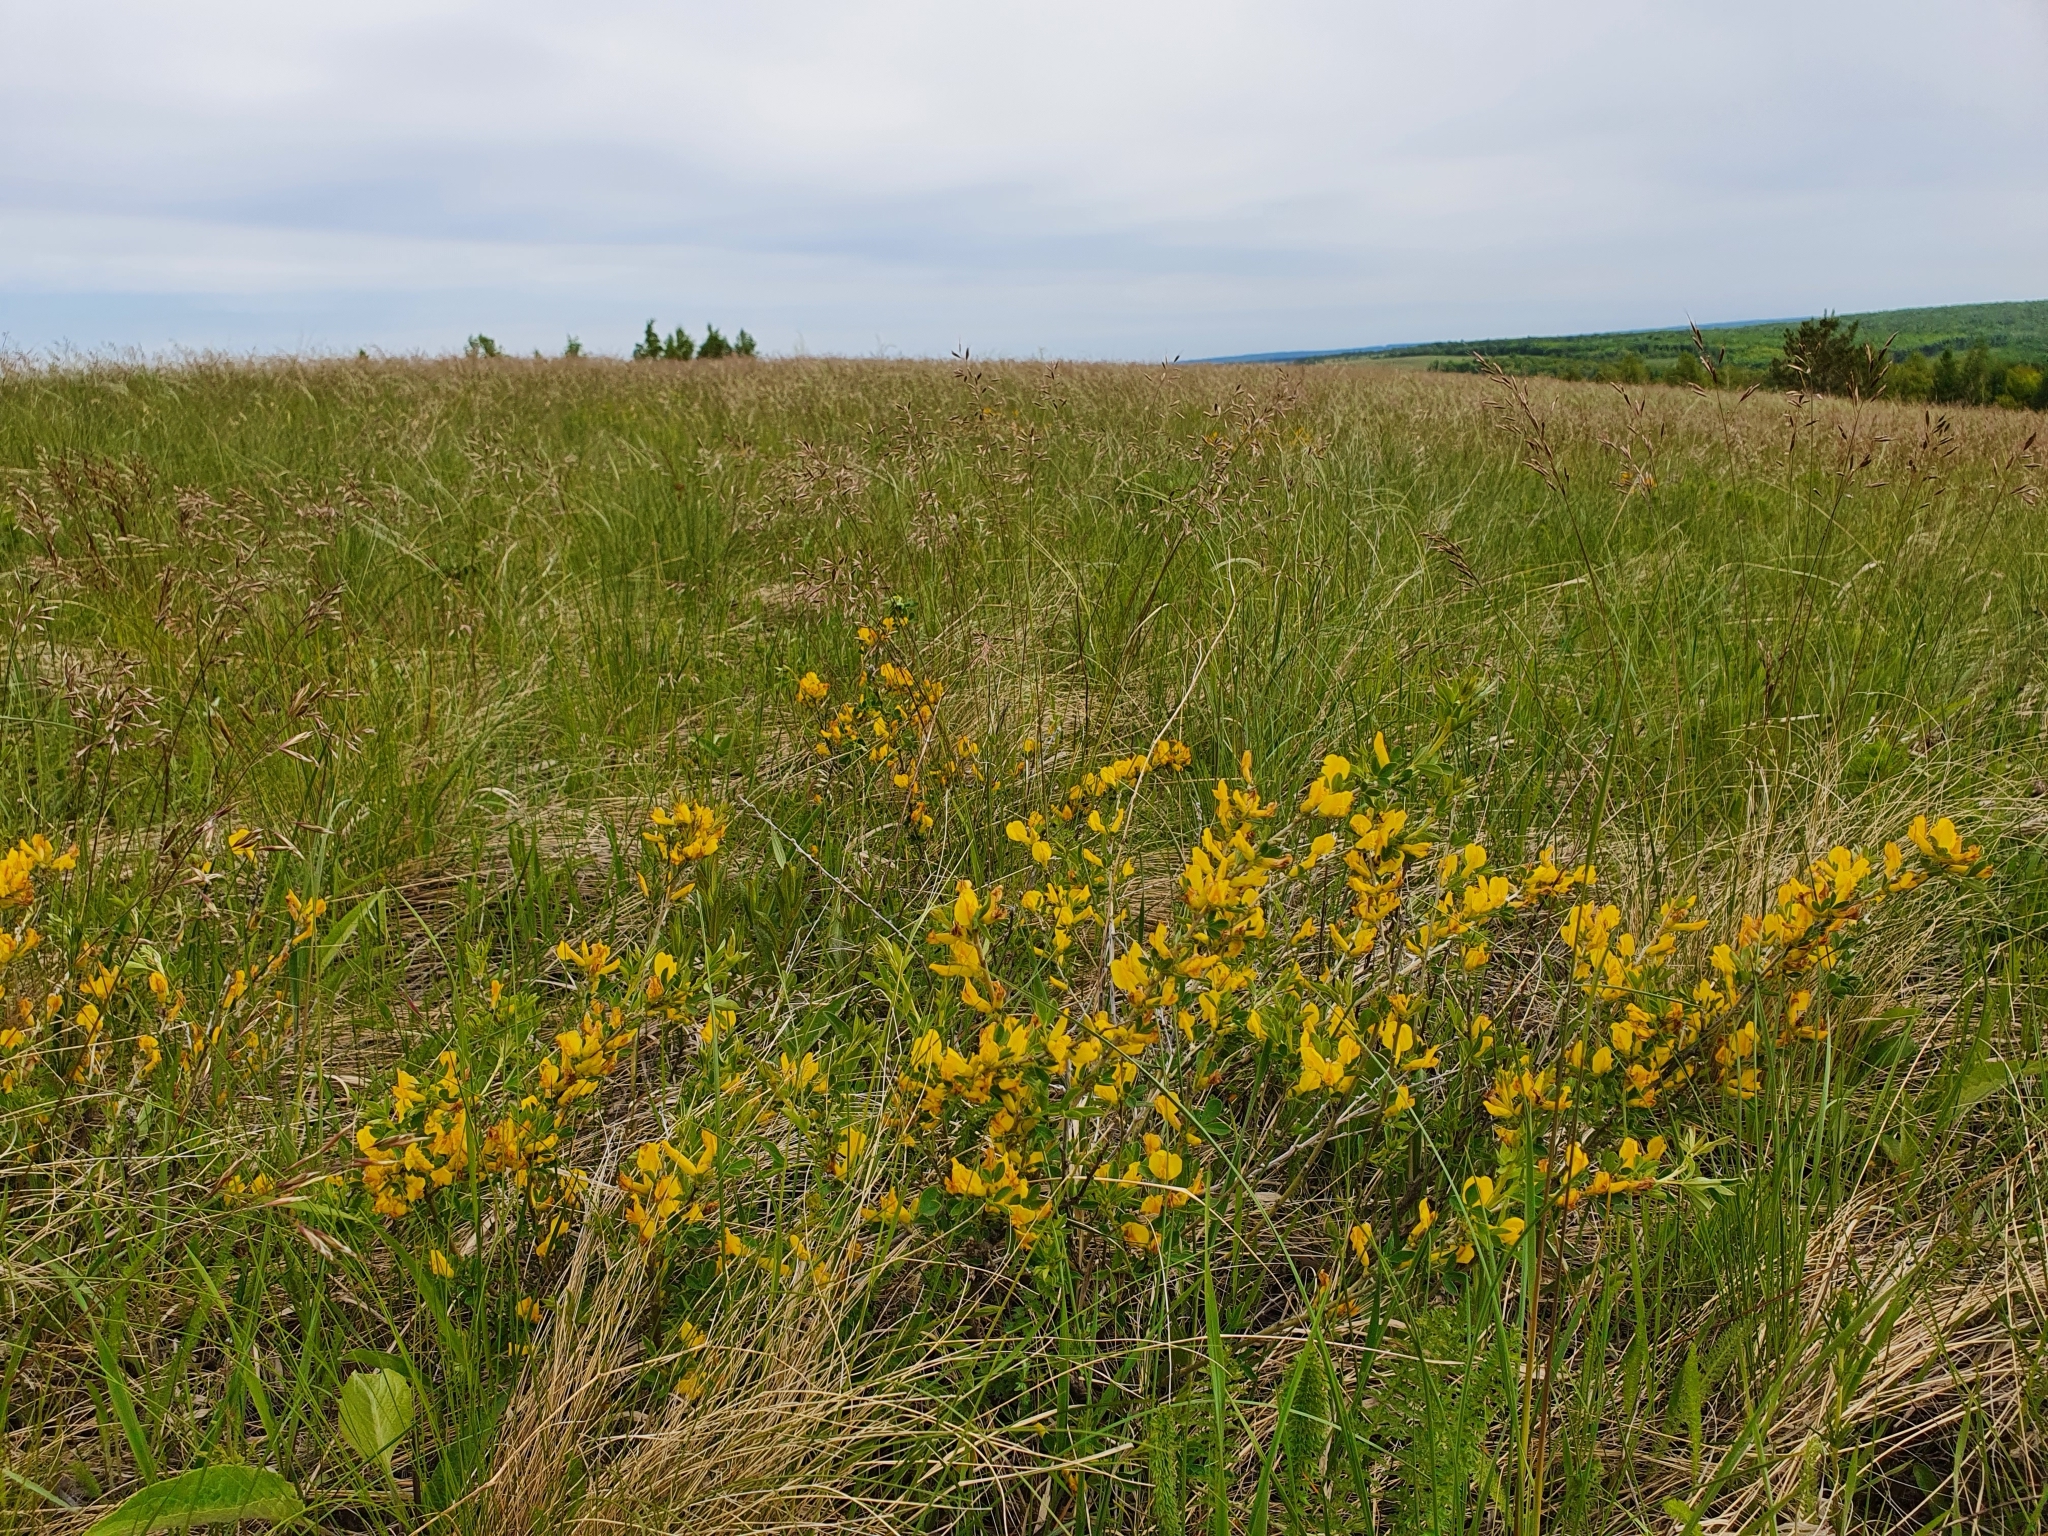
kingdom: Plantae
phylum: Tracheophyta
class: Magnoliopsida
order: Fabales
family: Fabaceae
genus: Chamaecytisus
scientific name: Chamaecytisus ruthenicus
